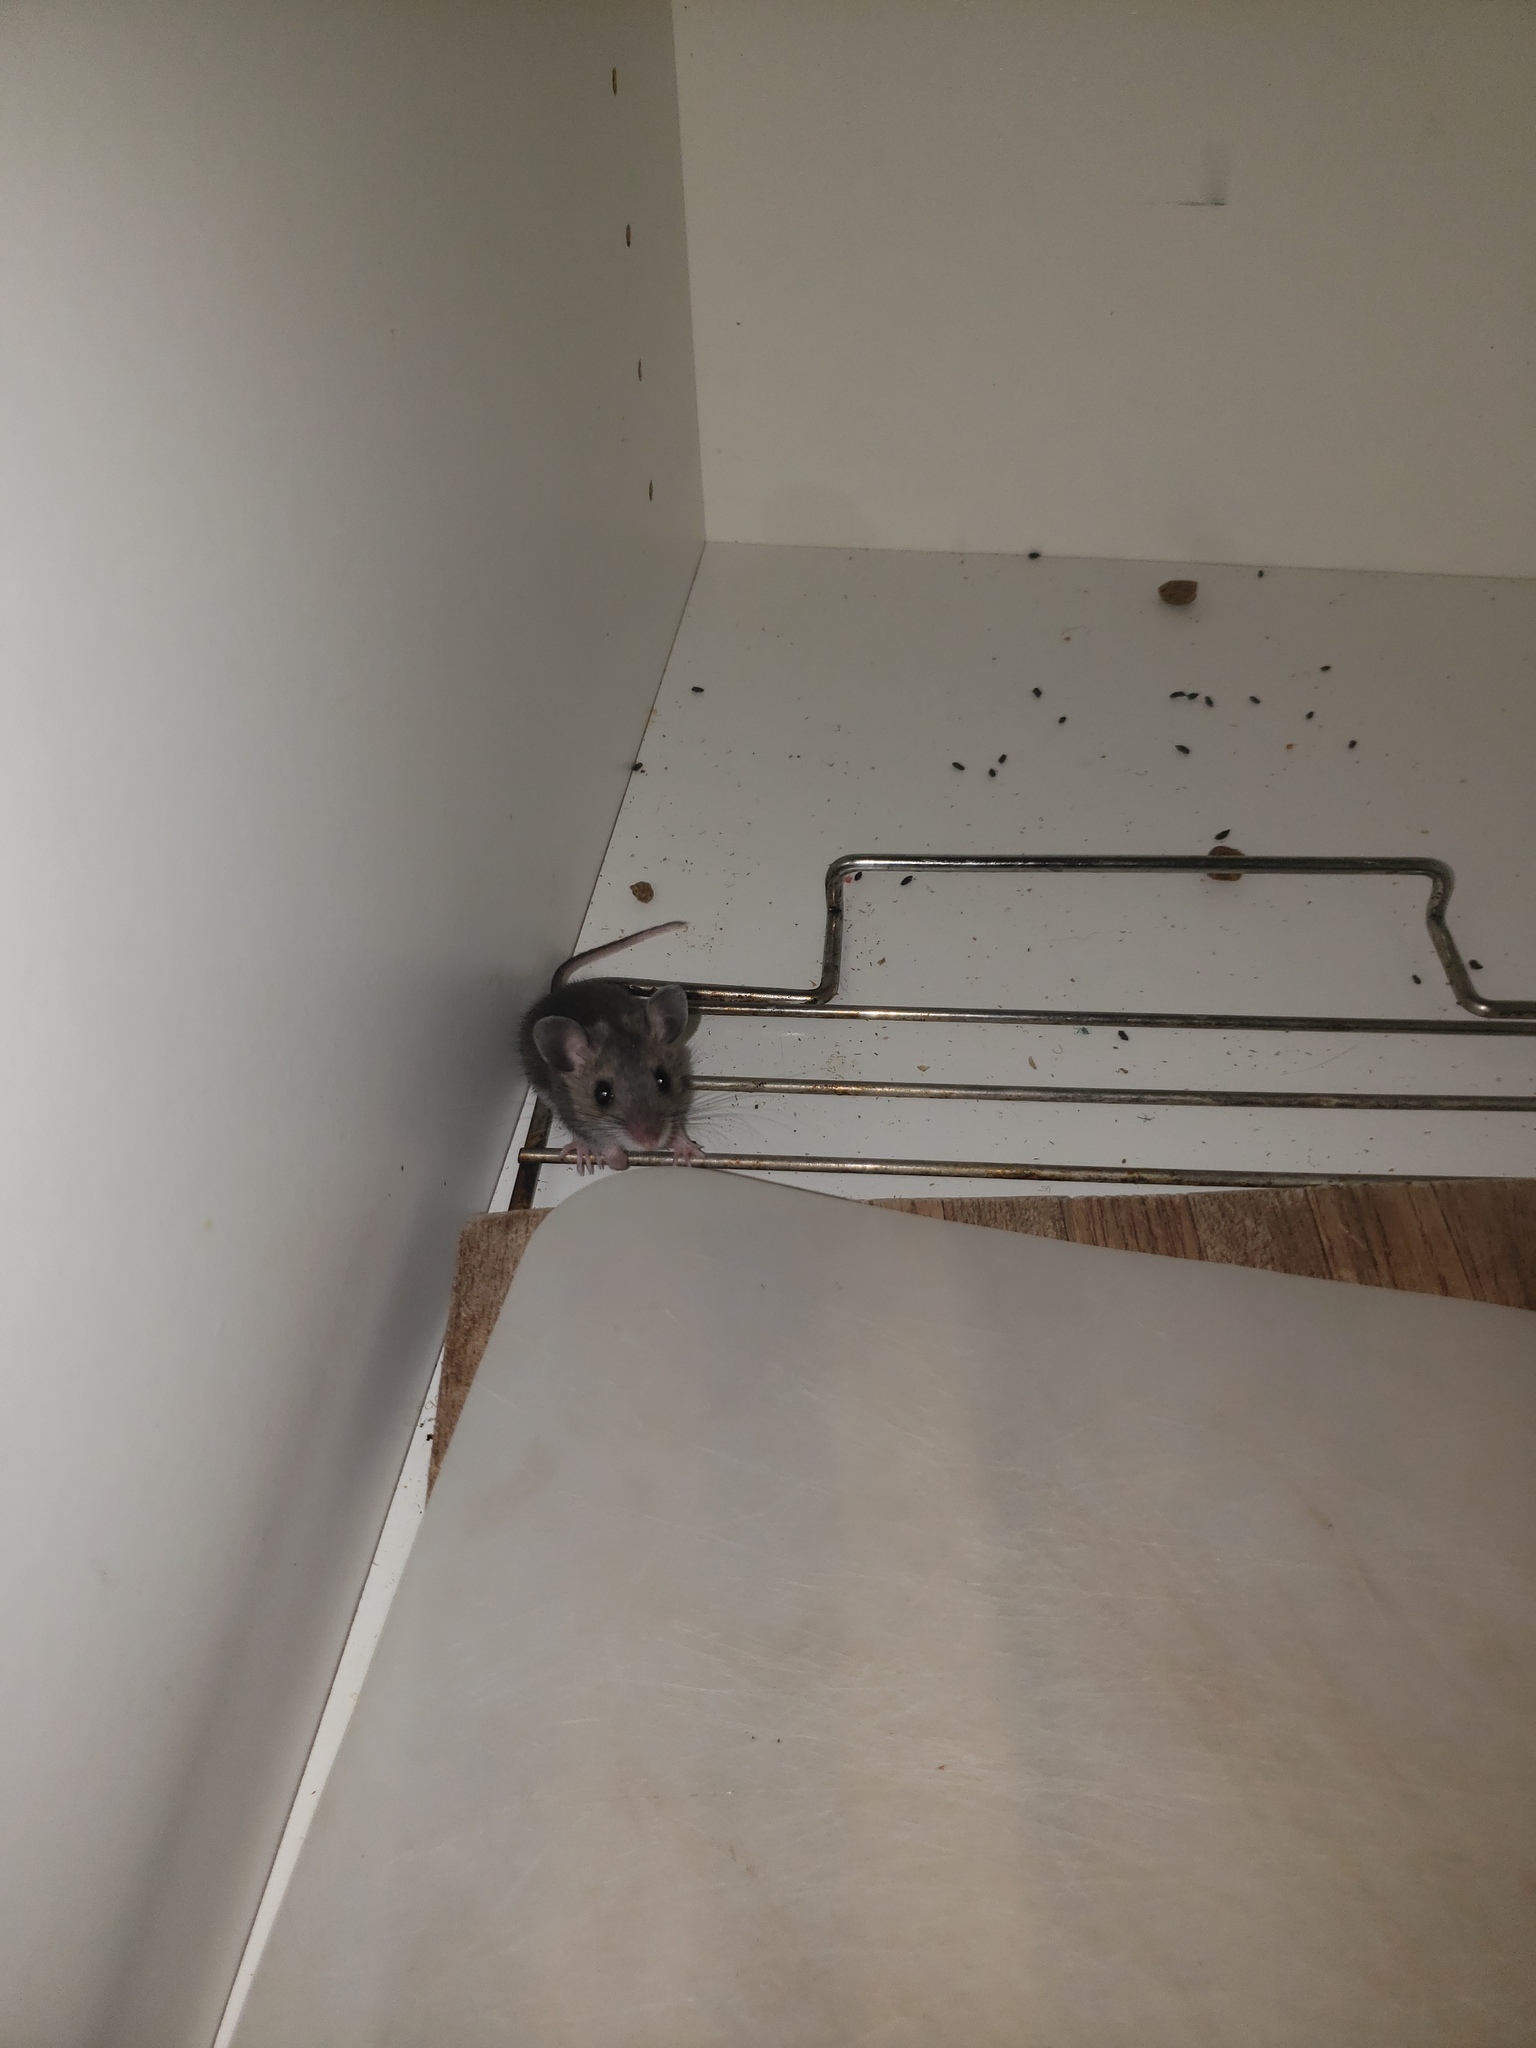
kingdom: Animalia
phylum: Chordata
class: Mammalia
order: Rodentia
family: Cricetidae
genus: Peromyscus
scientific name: Peromyscus maniculatus
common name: Deer mouse
